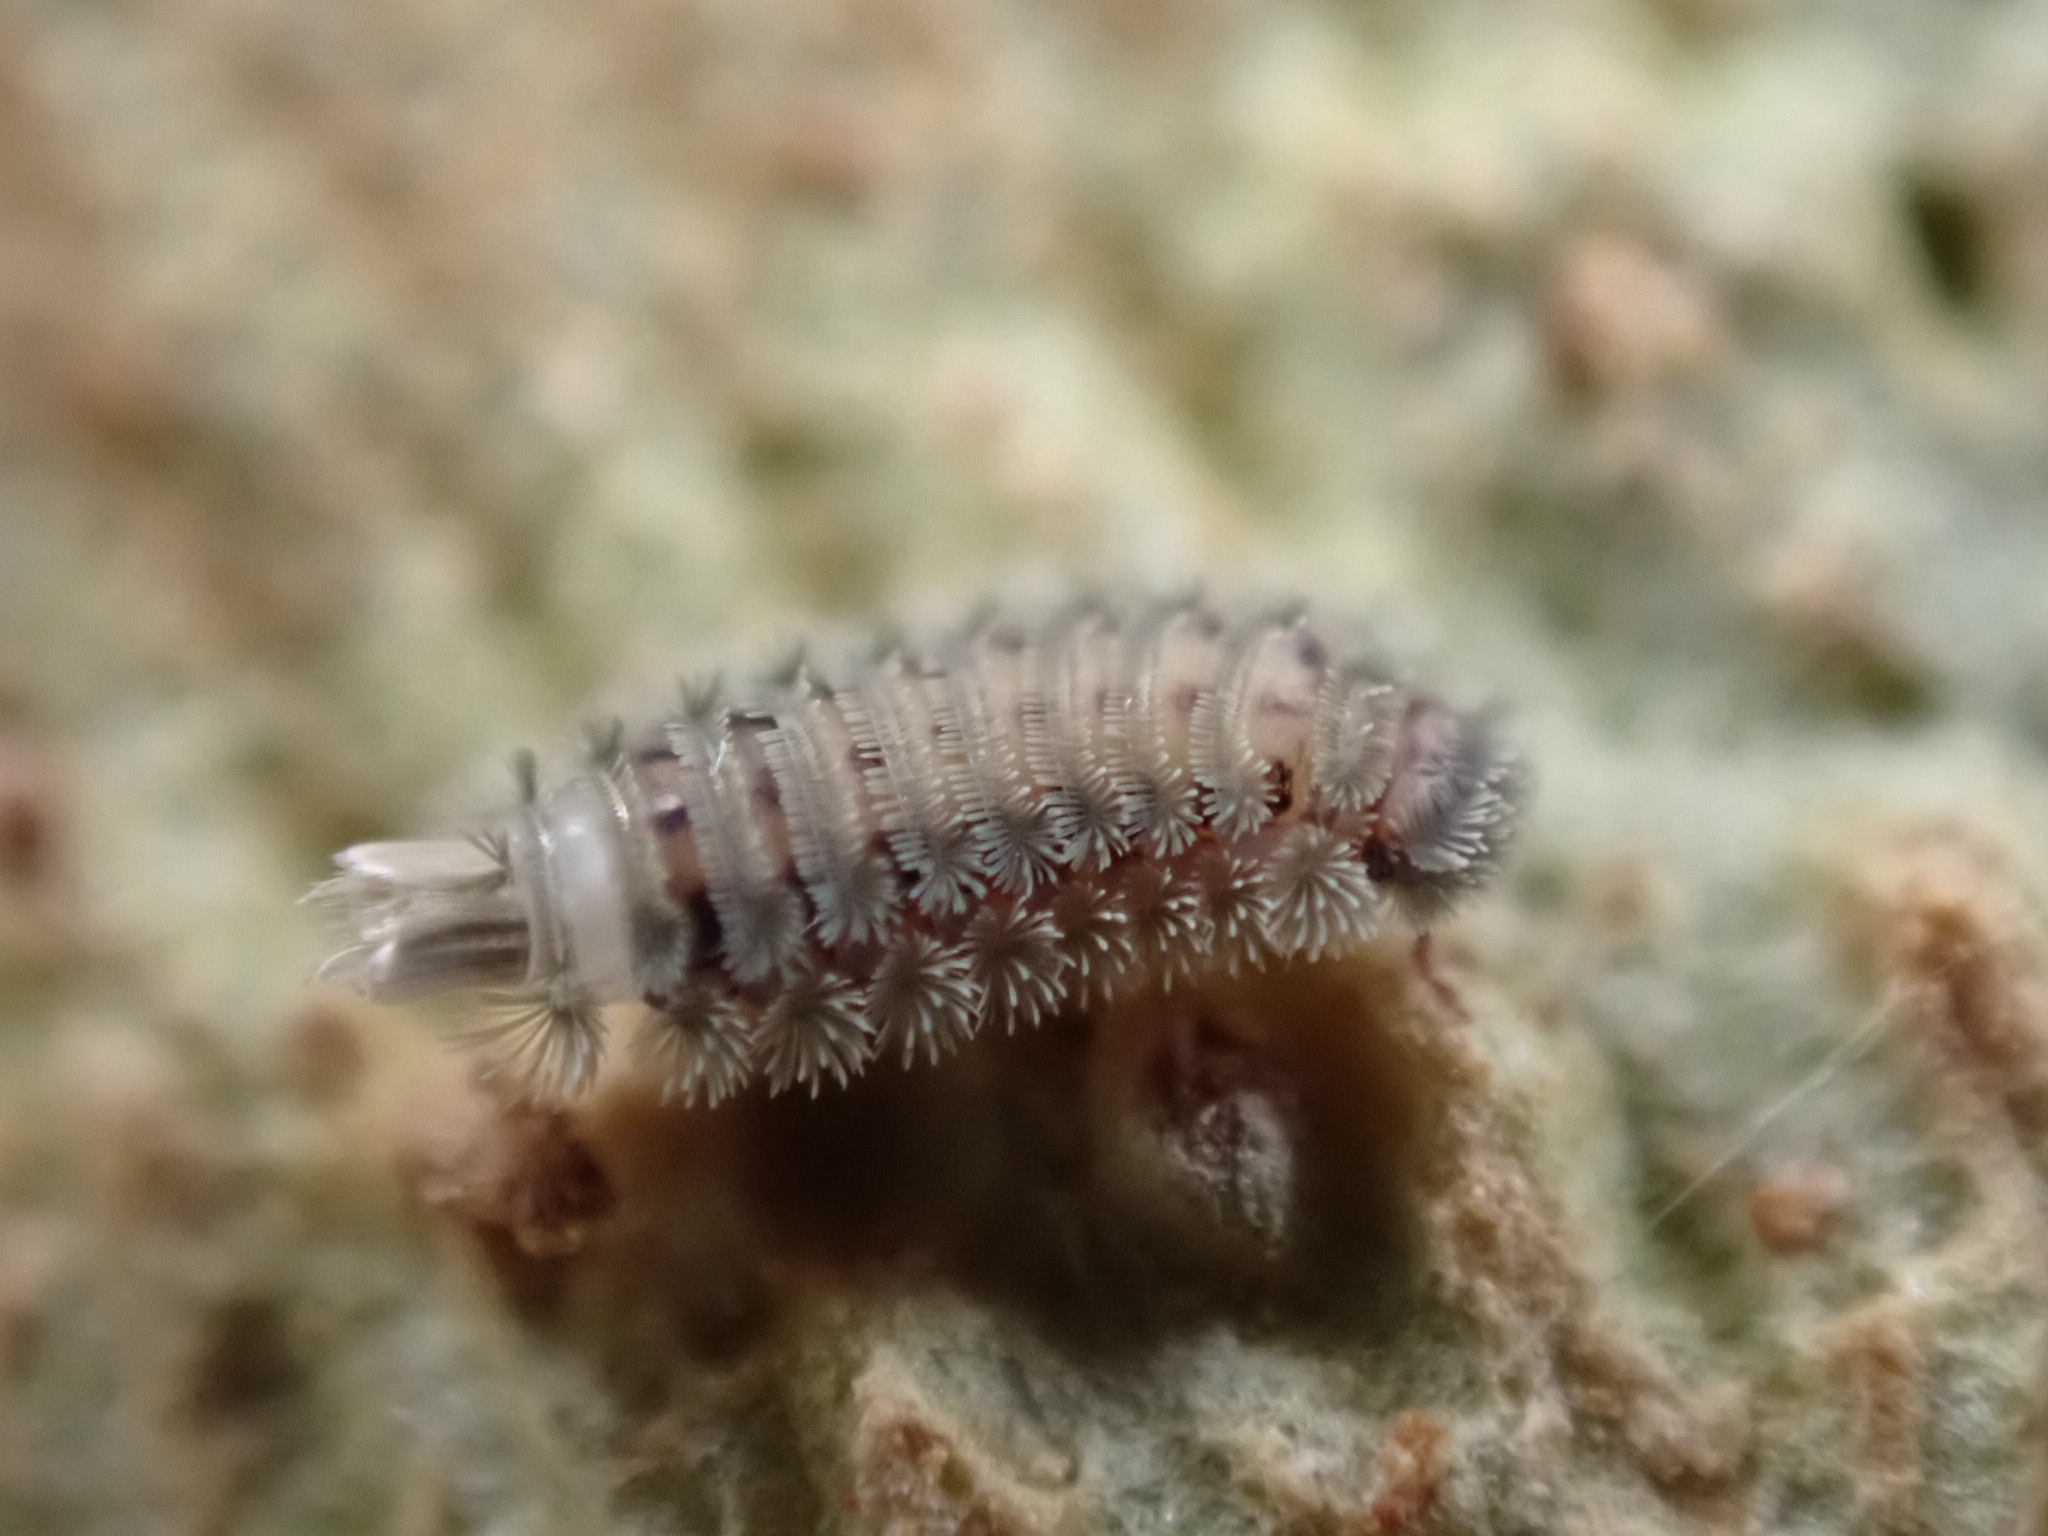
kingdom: Animalia
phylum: Arthropoda
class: Diplopoda
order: Polyxenida
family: Polyxenidae
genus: Polyxenus
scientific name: Polyxenus lagurus
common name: Bristly millipede
